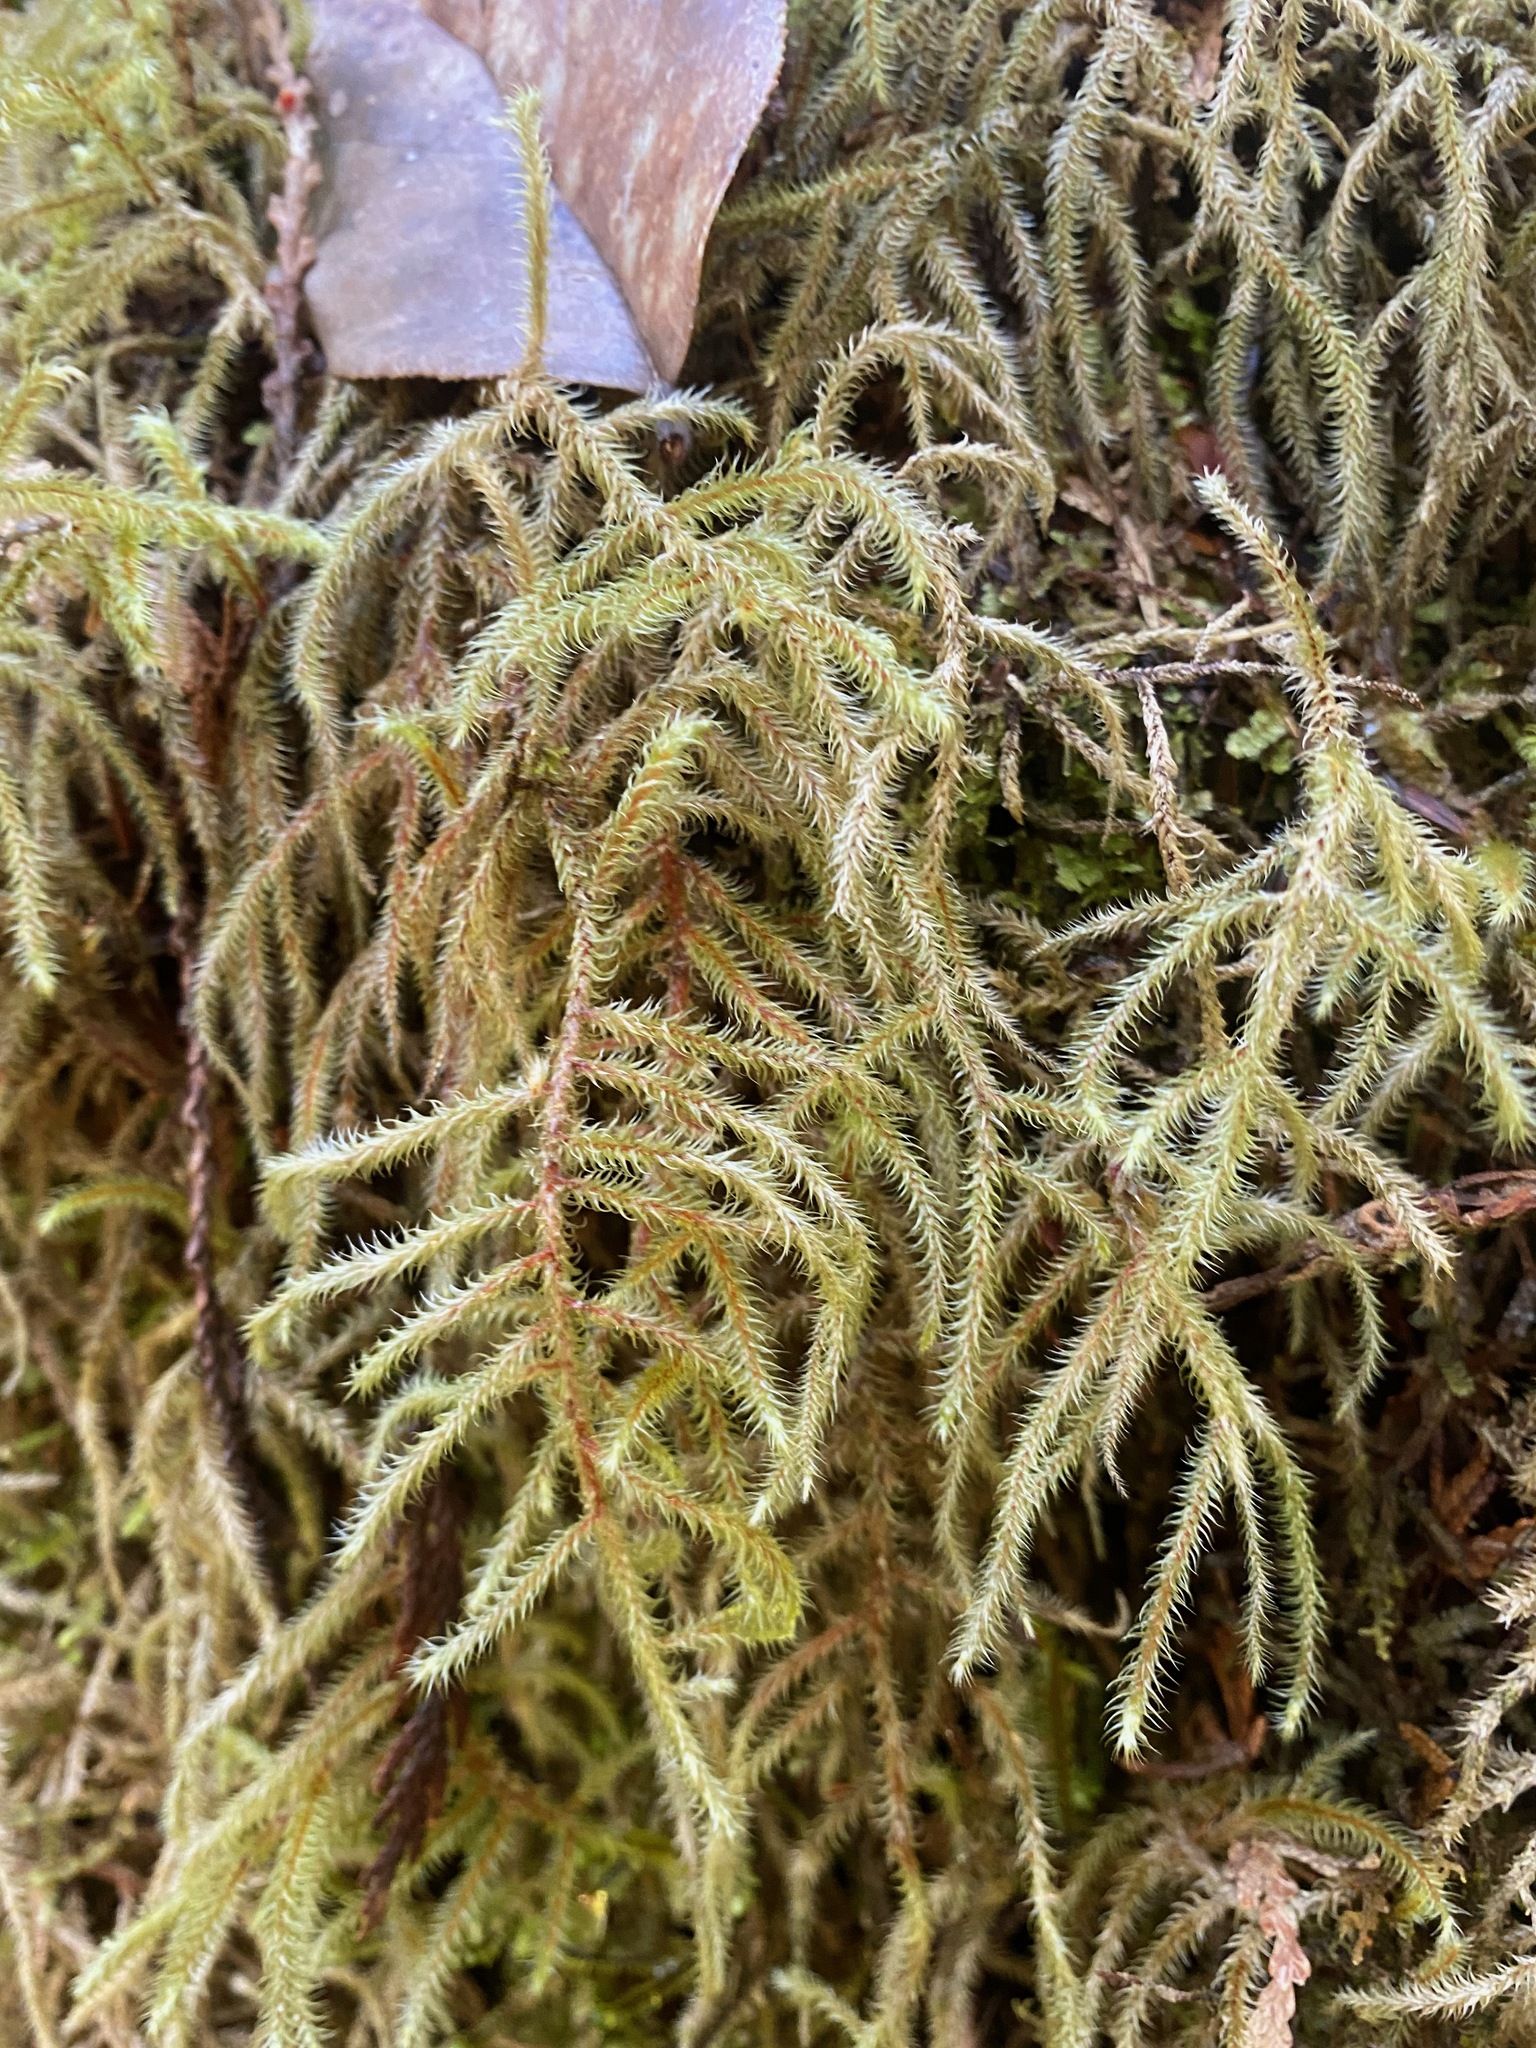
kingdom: Plantae
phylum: Bryophyta
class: Bryopsida
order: Hypnales
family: Hylocomiaceae
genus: Rhytidiadelphus
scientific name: Rhytidiadelphus loreus
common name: Lanky moss
